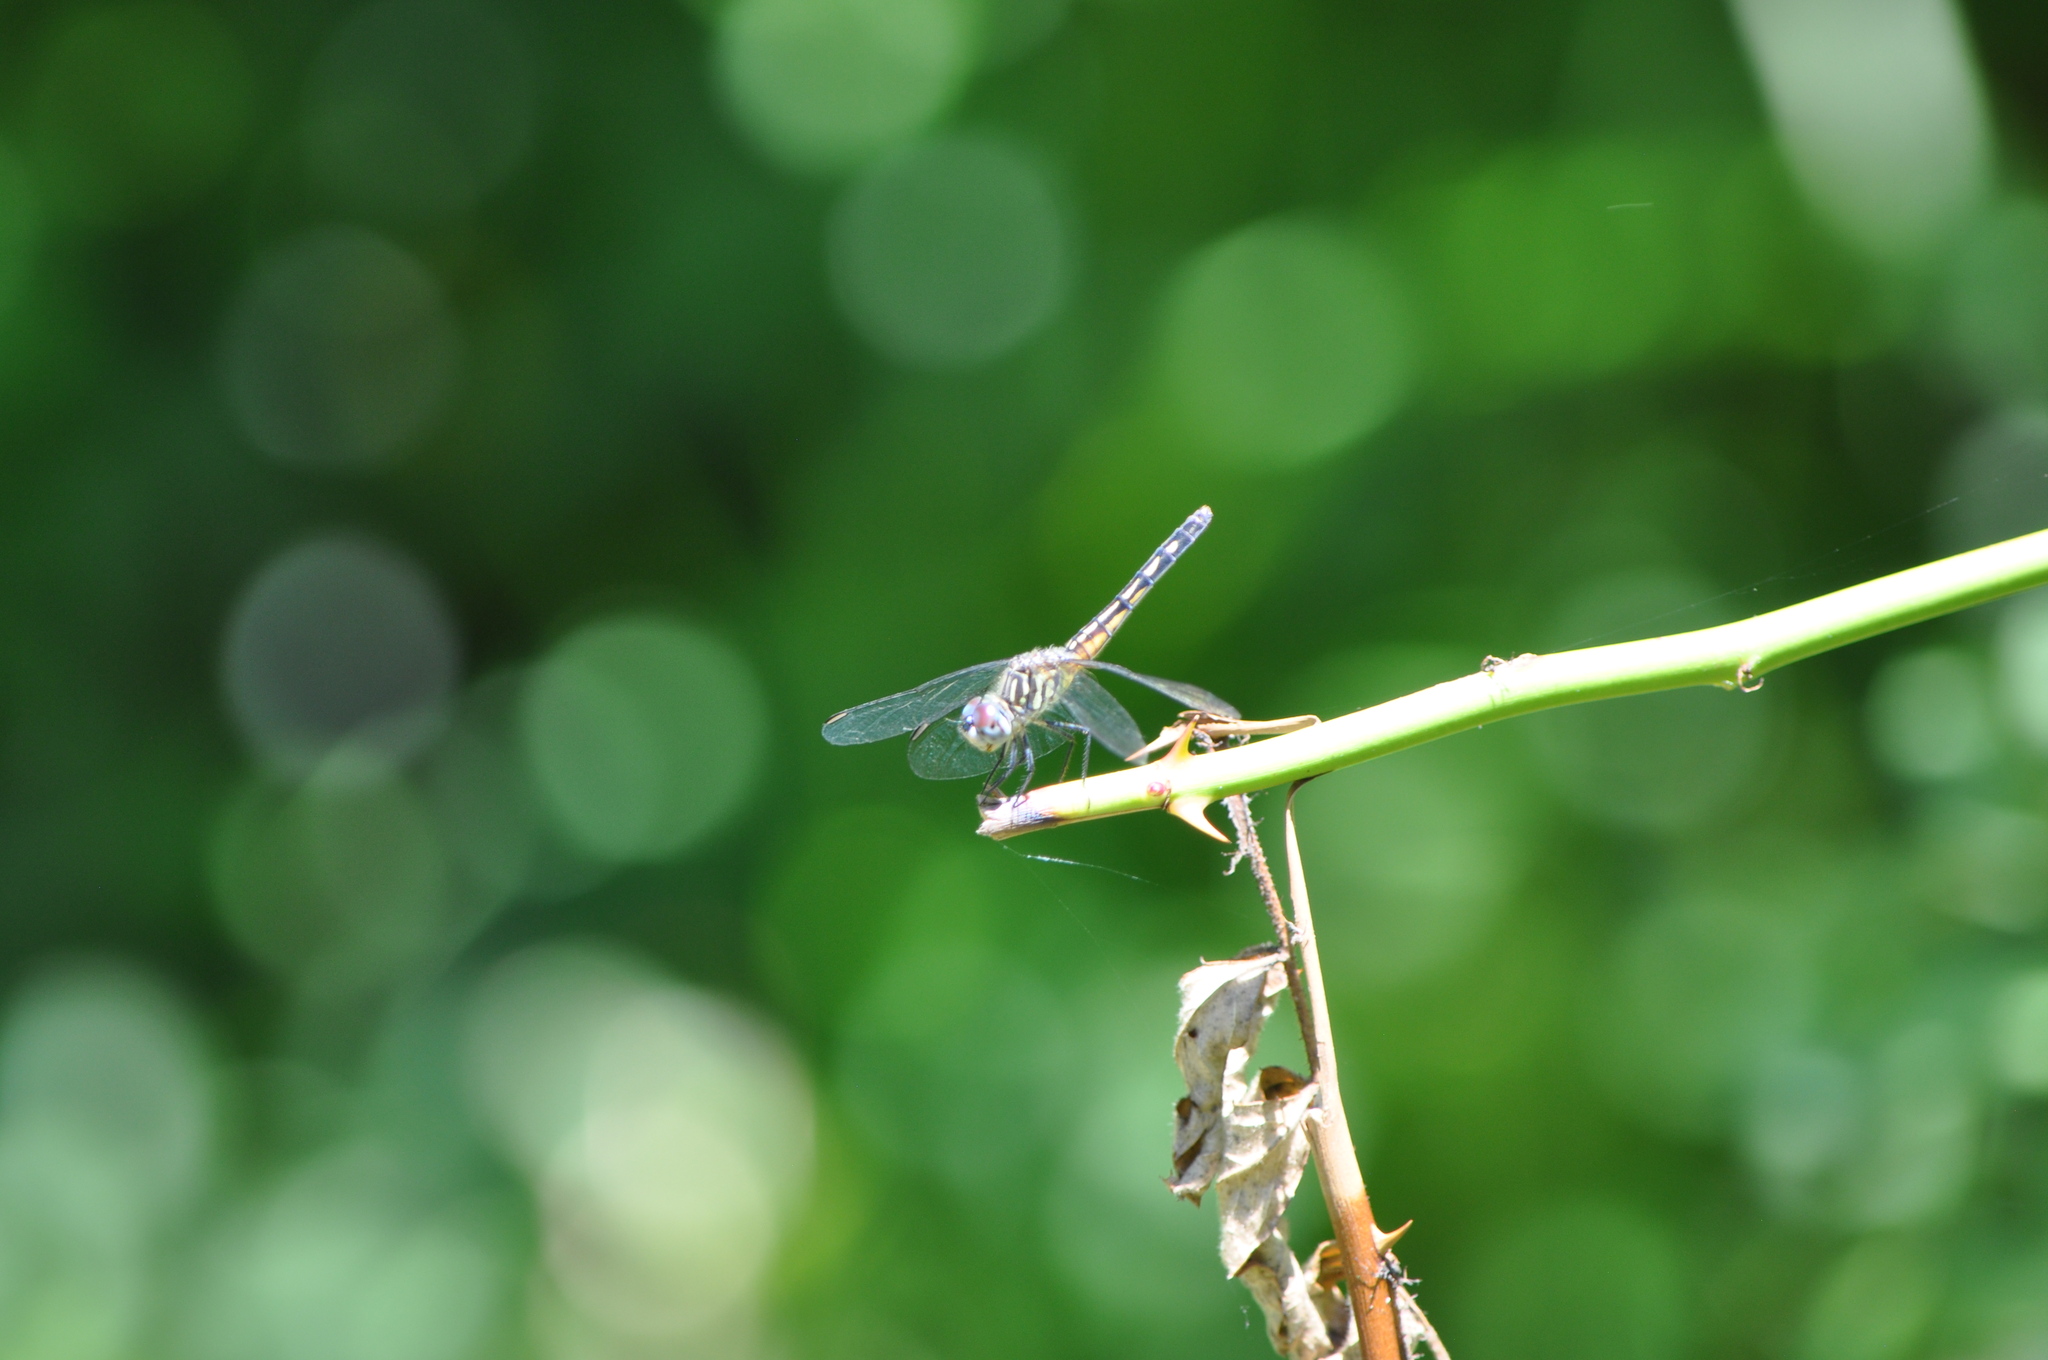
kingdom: Animalia
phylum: Arthropoda
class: Insecta
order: Odonata
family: Libellulidae
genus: Pachydiplax
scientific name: Pachydiplax longipennis
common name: Blue dasher
